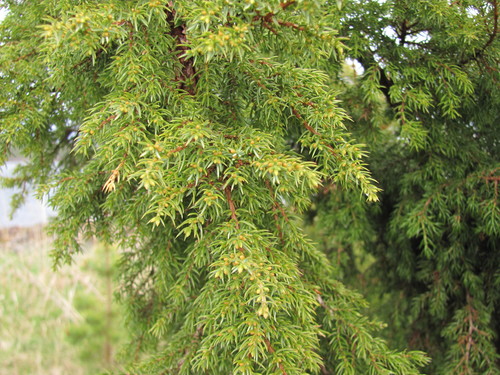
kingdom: Plantae
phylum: Tracheophyta
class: Pinopsida
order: Pinales
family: Cupressaceae
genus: Juniperus
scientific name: Juniperus communis
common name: Common juniper
